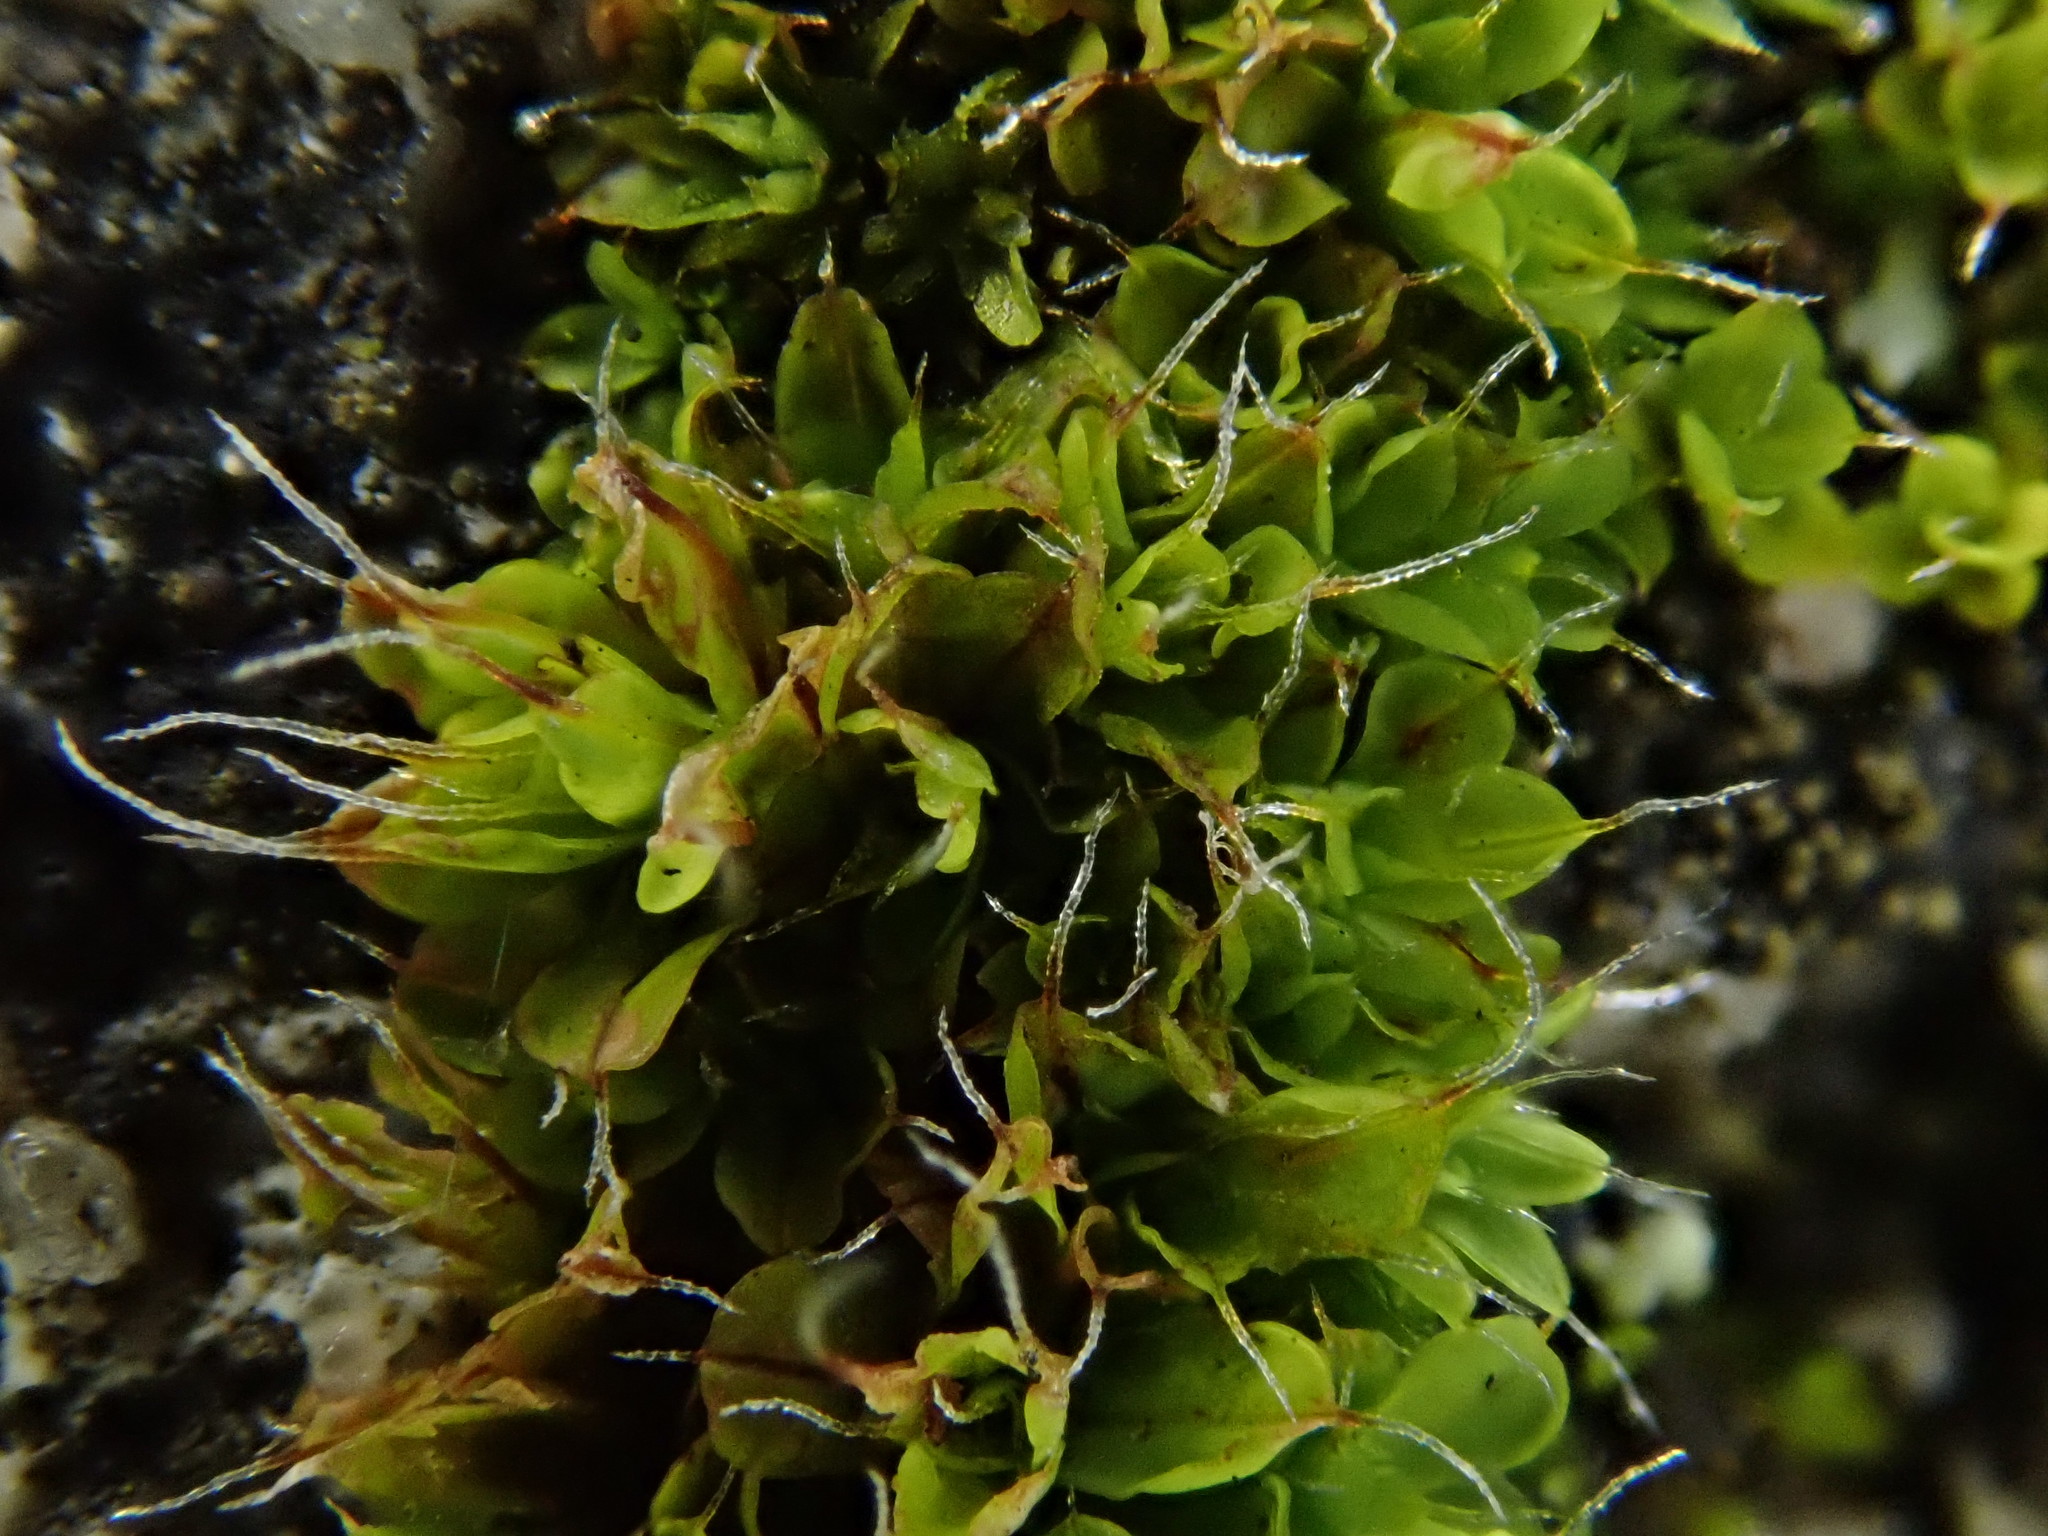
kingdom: Plantae
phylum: Bryophyta
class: Bryopsida
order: Pottiales
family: Pottiaceae
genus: Syntrichia
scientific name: Syntrichia montana
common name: Intermediate screw-moss
